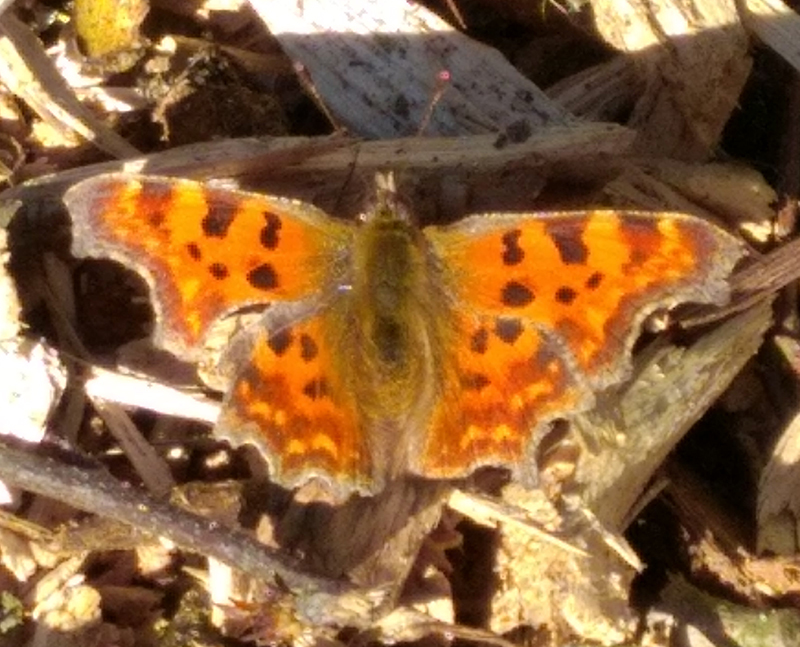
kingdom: Animalia
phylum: Arthropoda
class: Insecta
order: Lepidoptera
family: Nymphalidae
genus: Polygonia
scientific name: Polygonia c-album
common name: Comma
